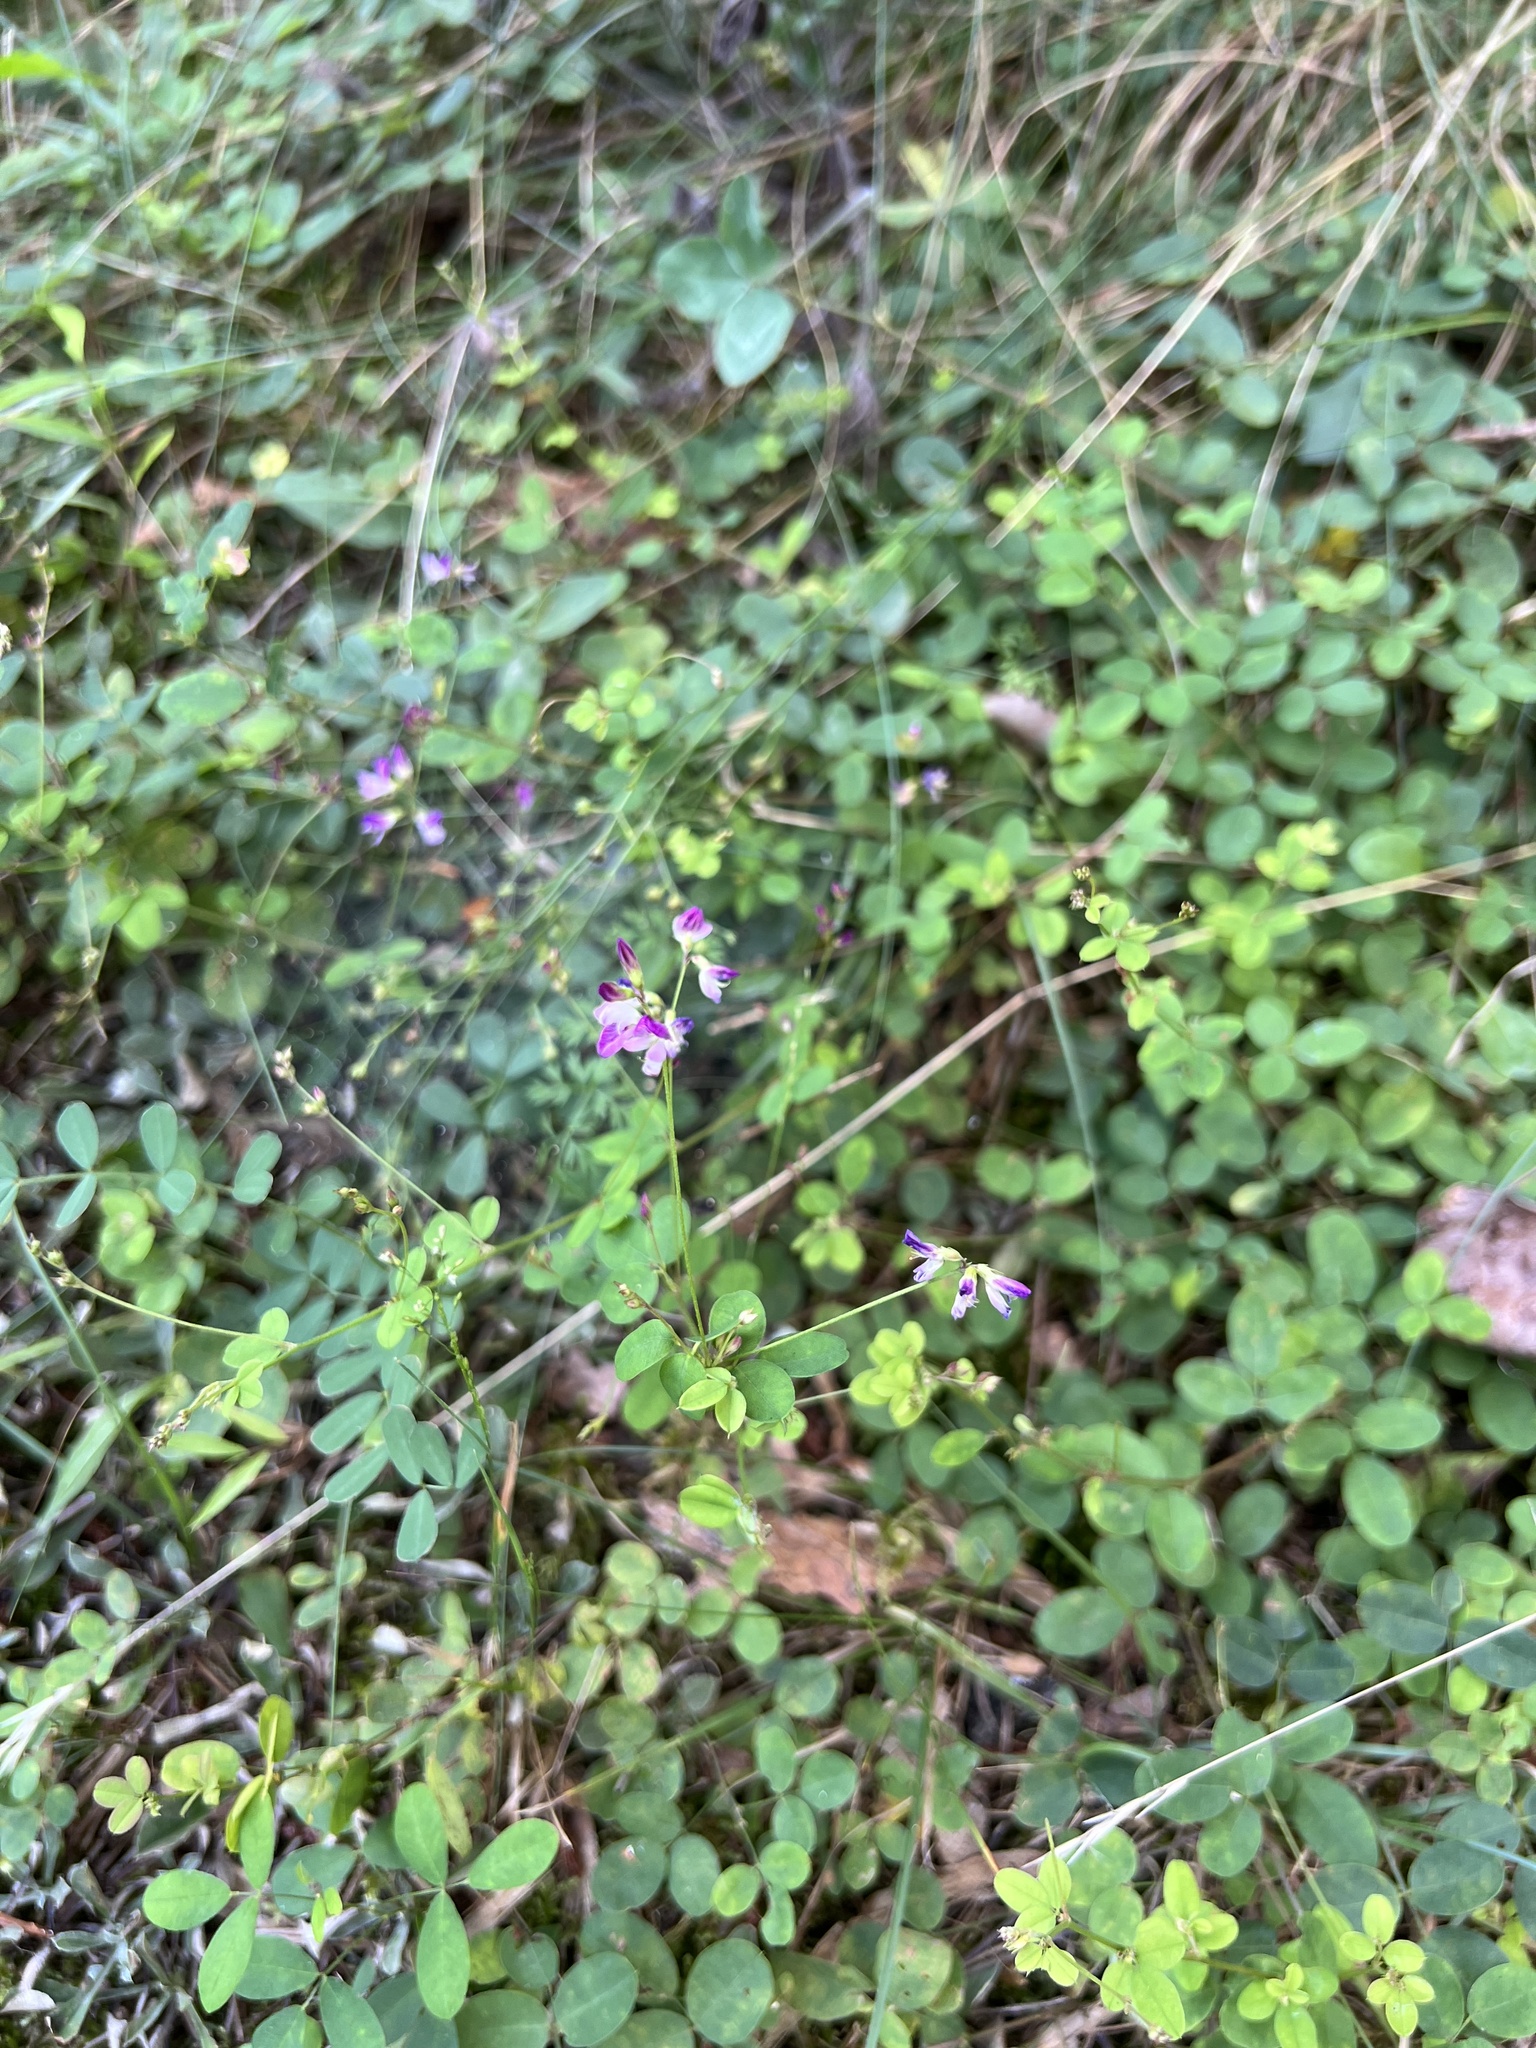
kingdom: Plantae
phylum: Tracheophyta
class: Magnoliopsida
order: Fabales
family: Fabaceae
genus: Lespedeza
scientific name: Lespedeza repens
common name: Creeping bush-clover
